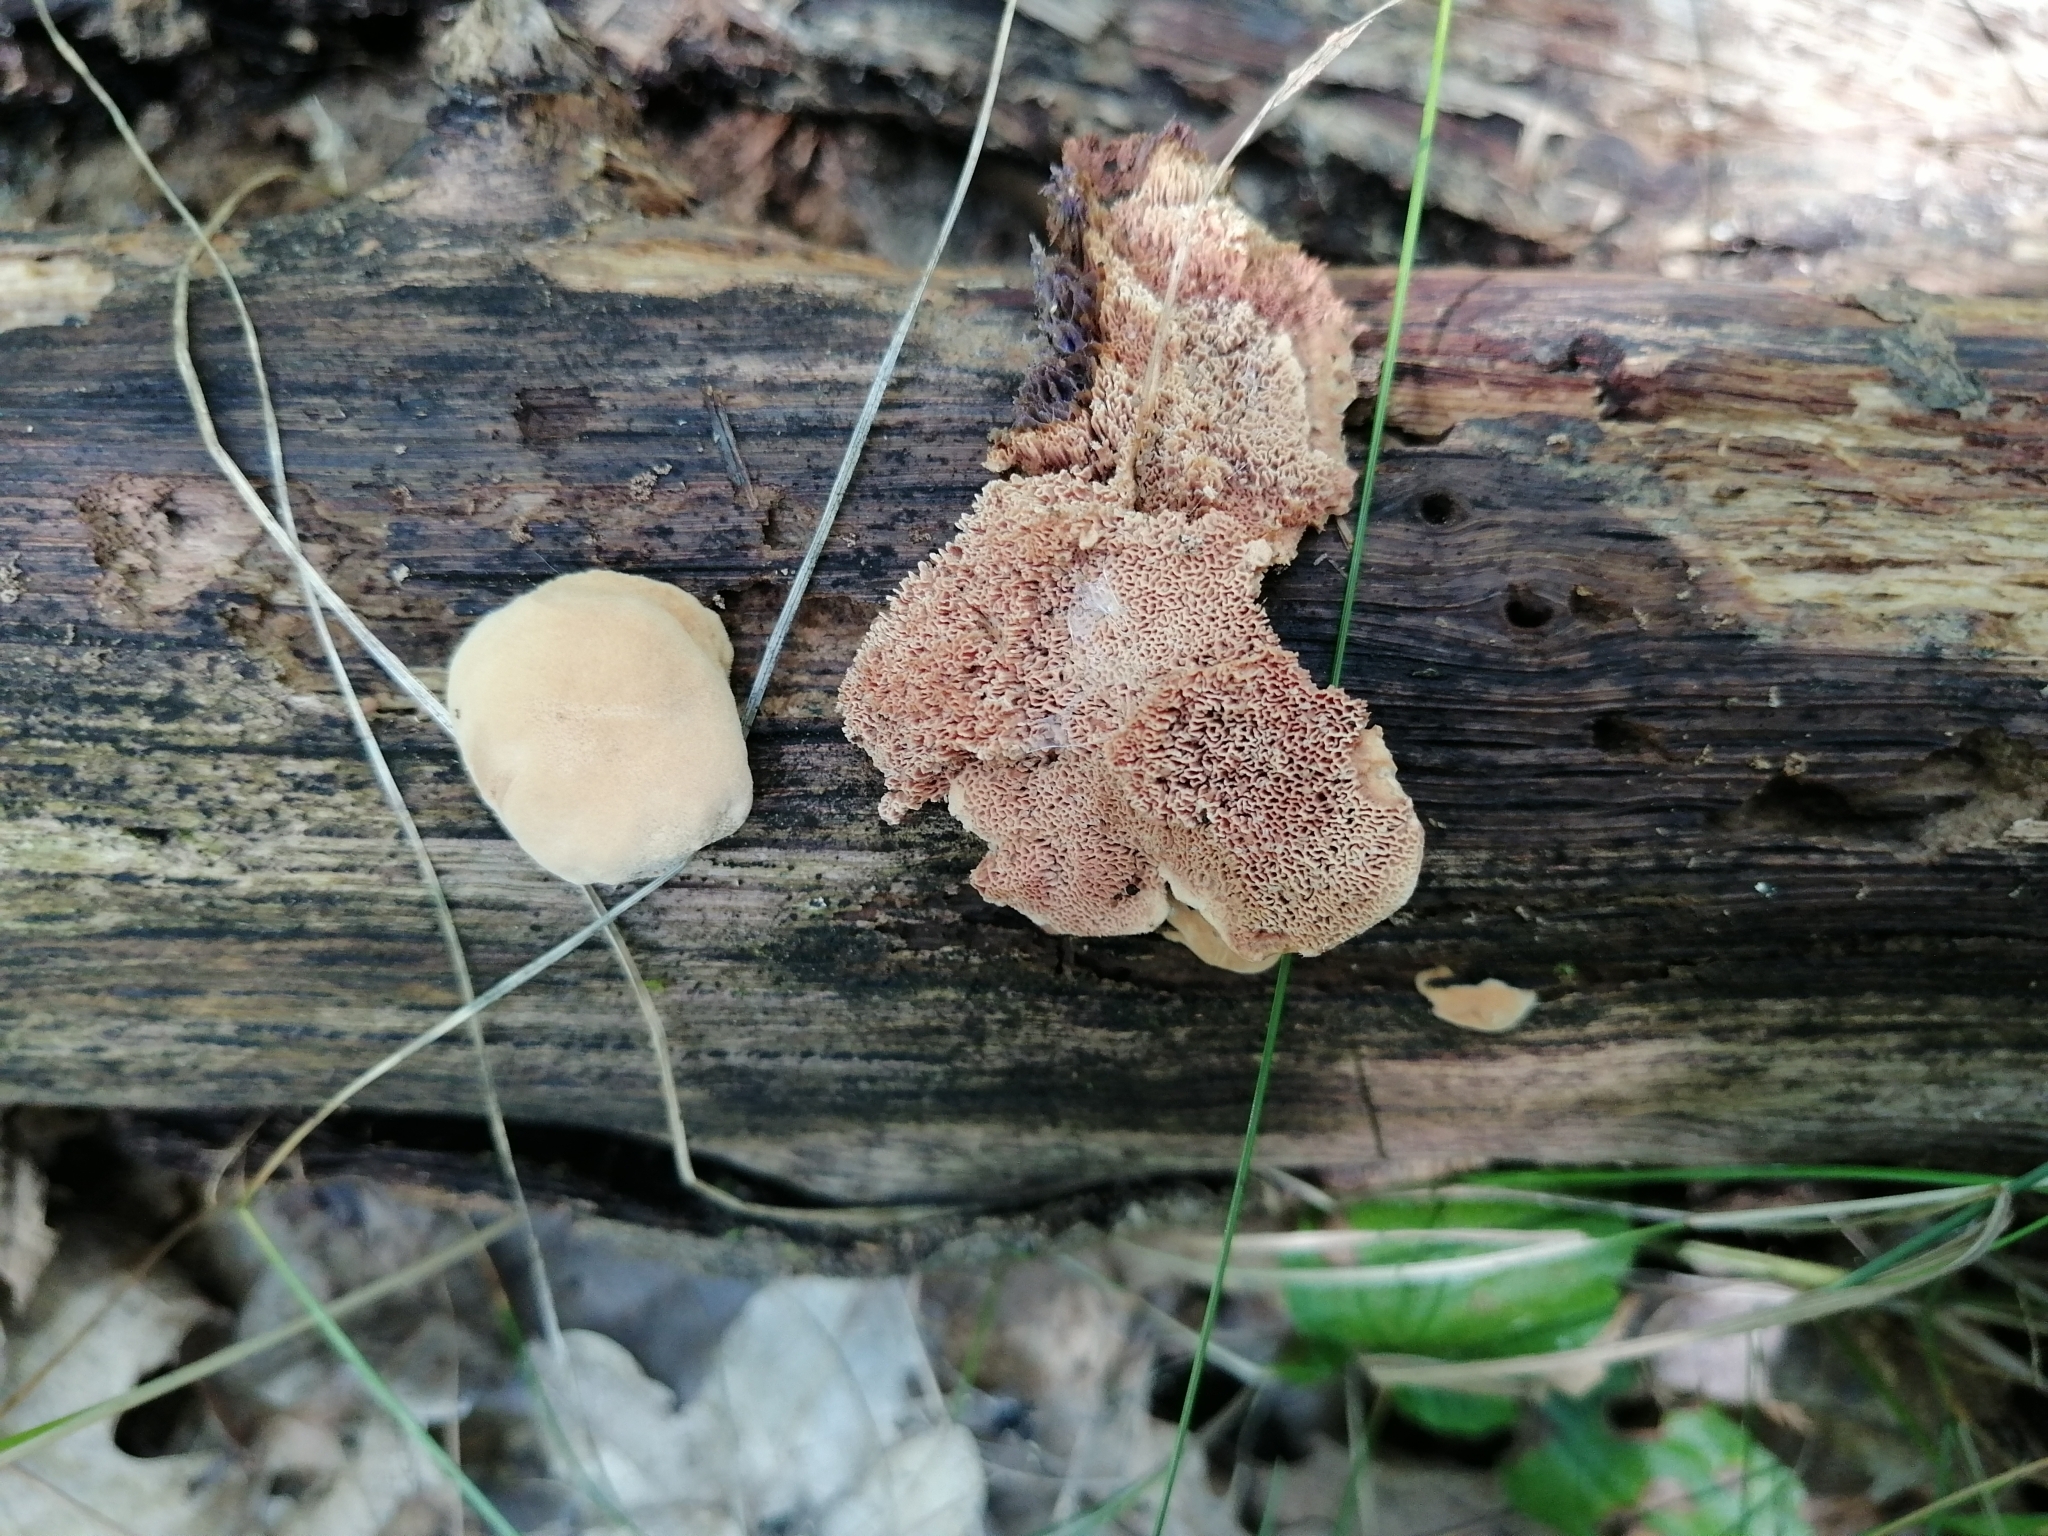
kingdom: Fungi
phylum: Basidiomycota
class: Agaricomycetes
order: Polyporales
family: Phanerochaetaceae
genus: Hapalopilus
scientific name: Hapalopilus rutilans
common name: Tender nesting polypore
